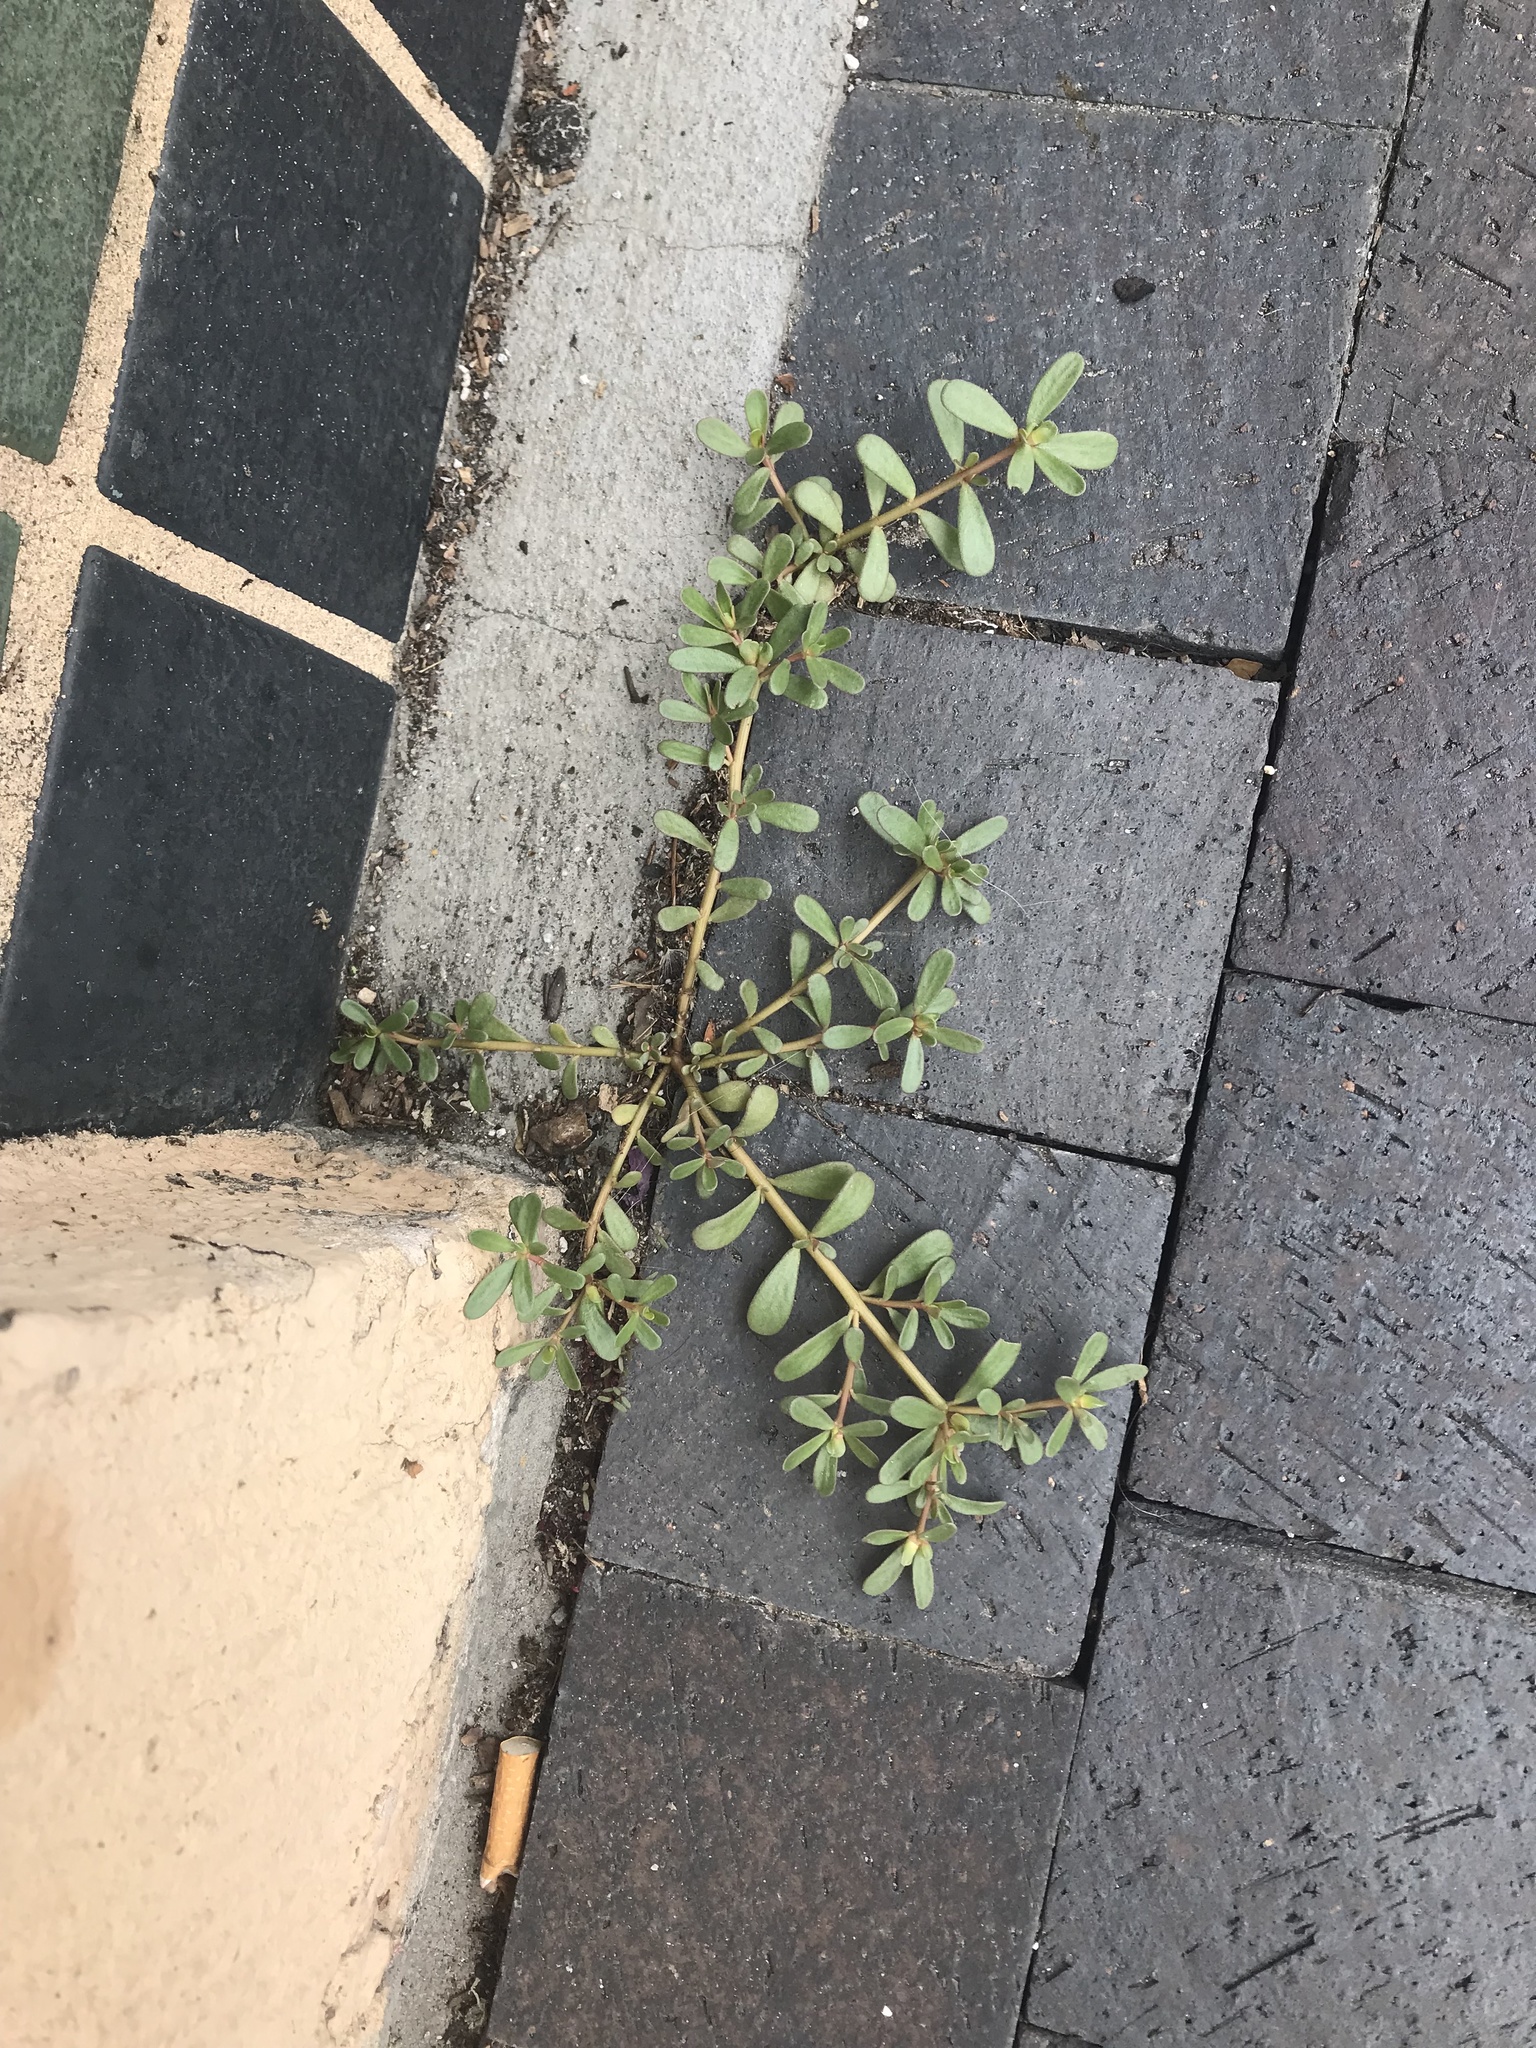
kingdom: Plantae
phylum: Tracheophyta
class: Magnoliopsida
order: Caryophyllales
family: Portulacaceae
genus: Portulaca
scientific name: Portulaca oleracea
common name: Common purslane
